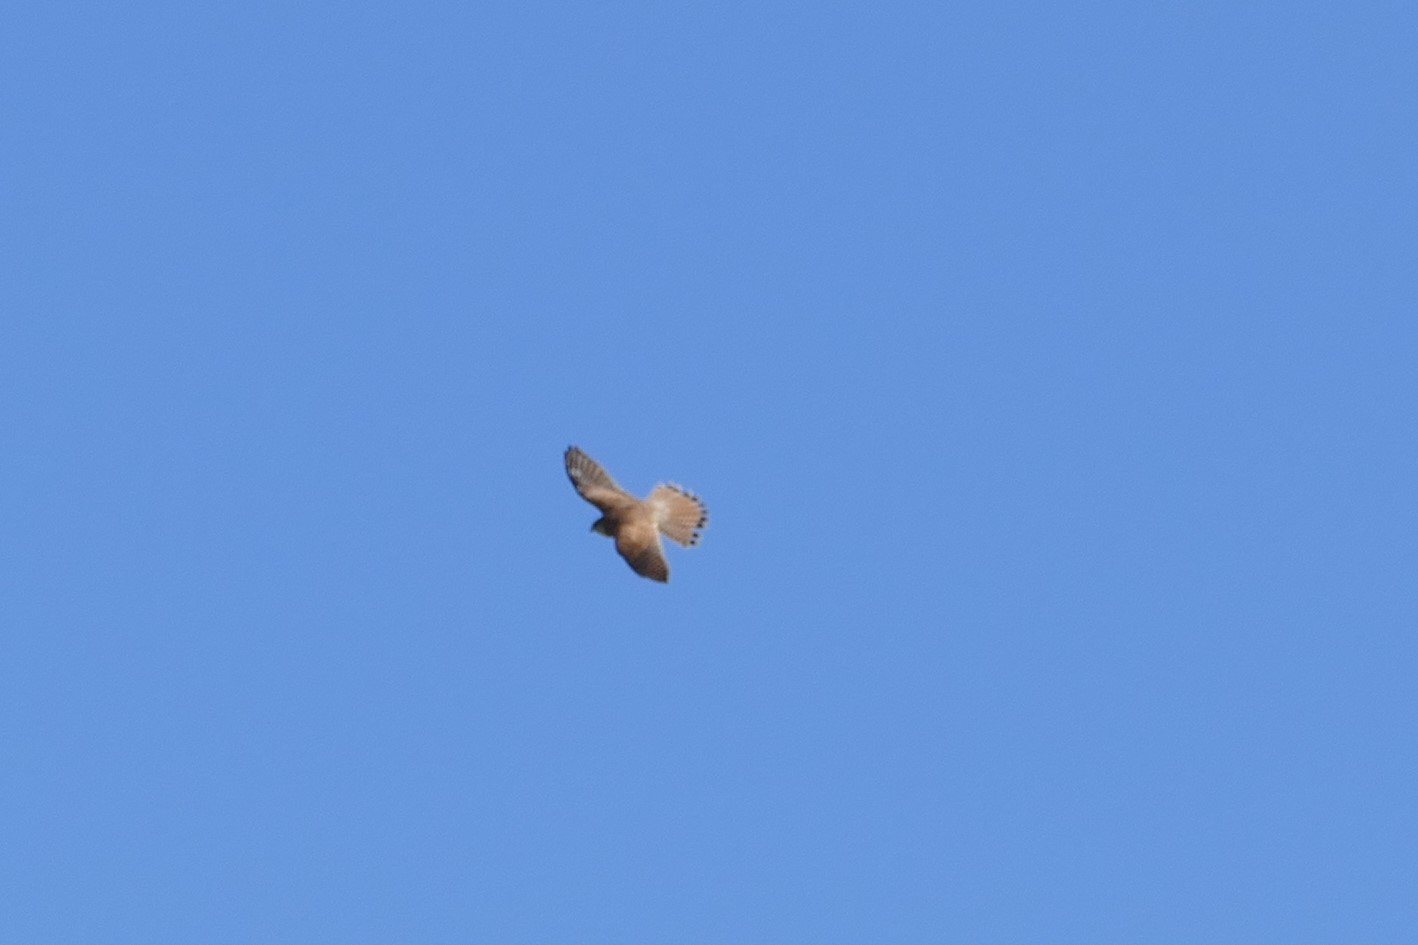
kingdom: Animalia
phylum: Chordata
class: Aves
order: Falconiformes
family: Falconidae
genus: Falco
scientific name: Falco tinnunculus
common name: Common kestrel
